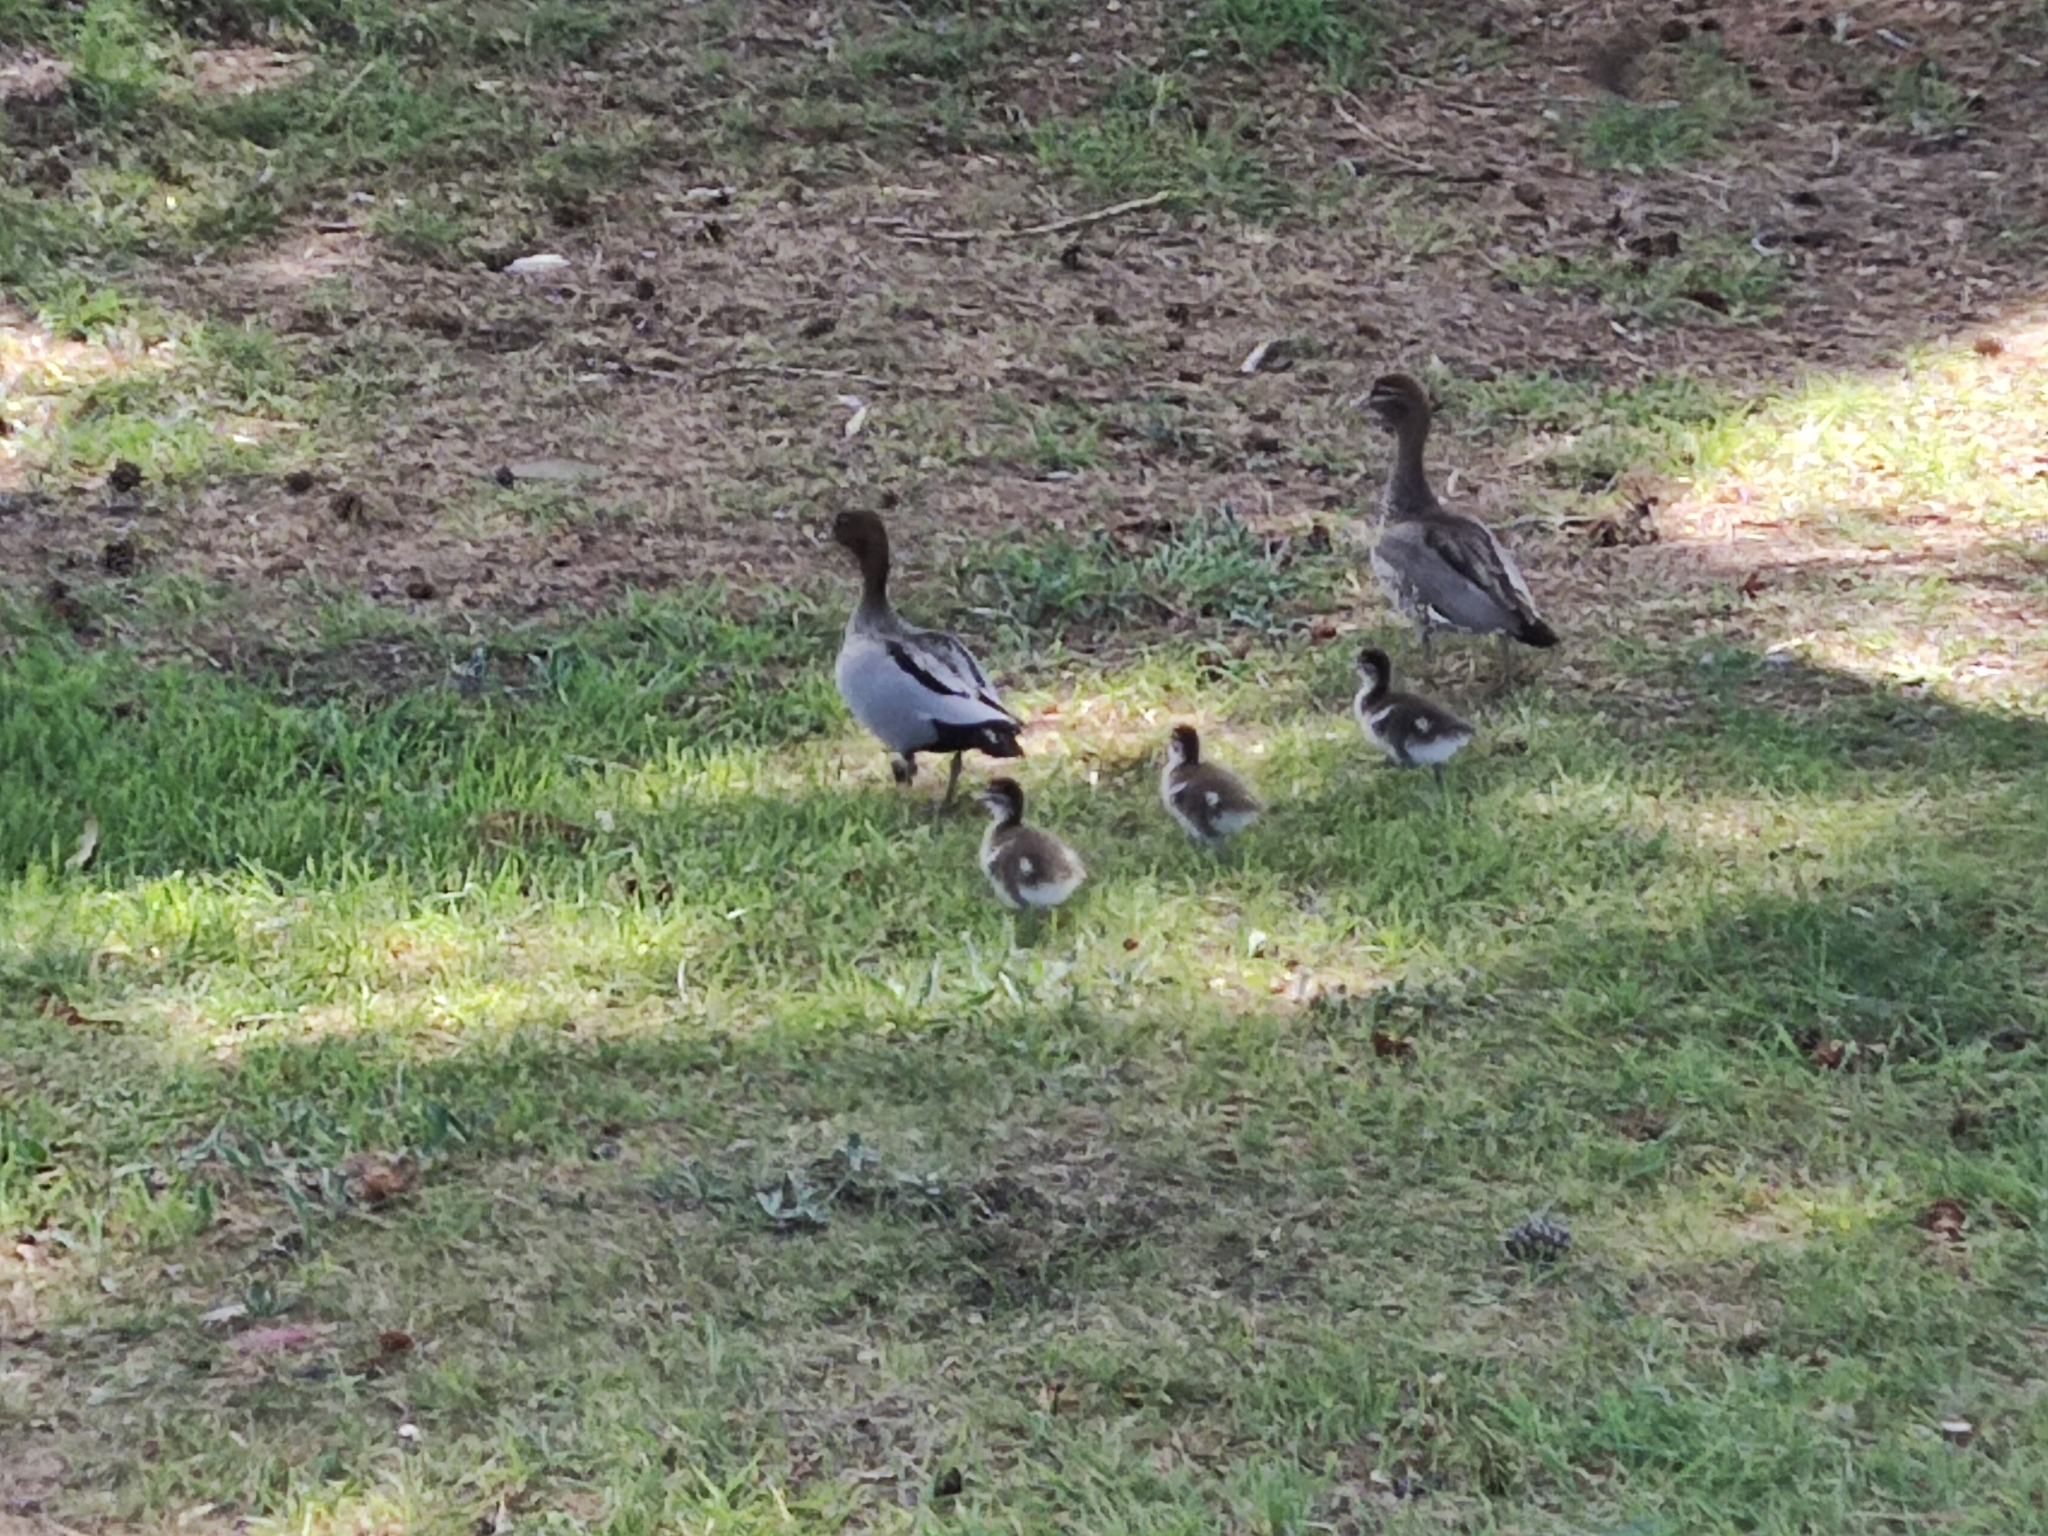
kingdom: Animalia
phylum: Chordata
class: Aves
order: Anseriformes
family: Anatidae
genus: Chenonetta
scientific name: Chenonetta jubata
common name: Maned duck
